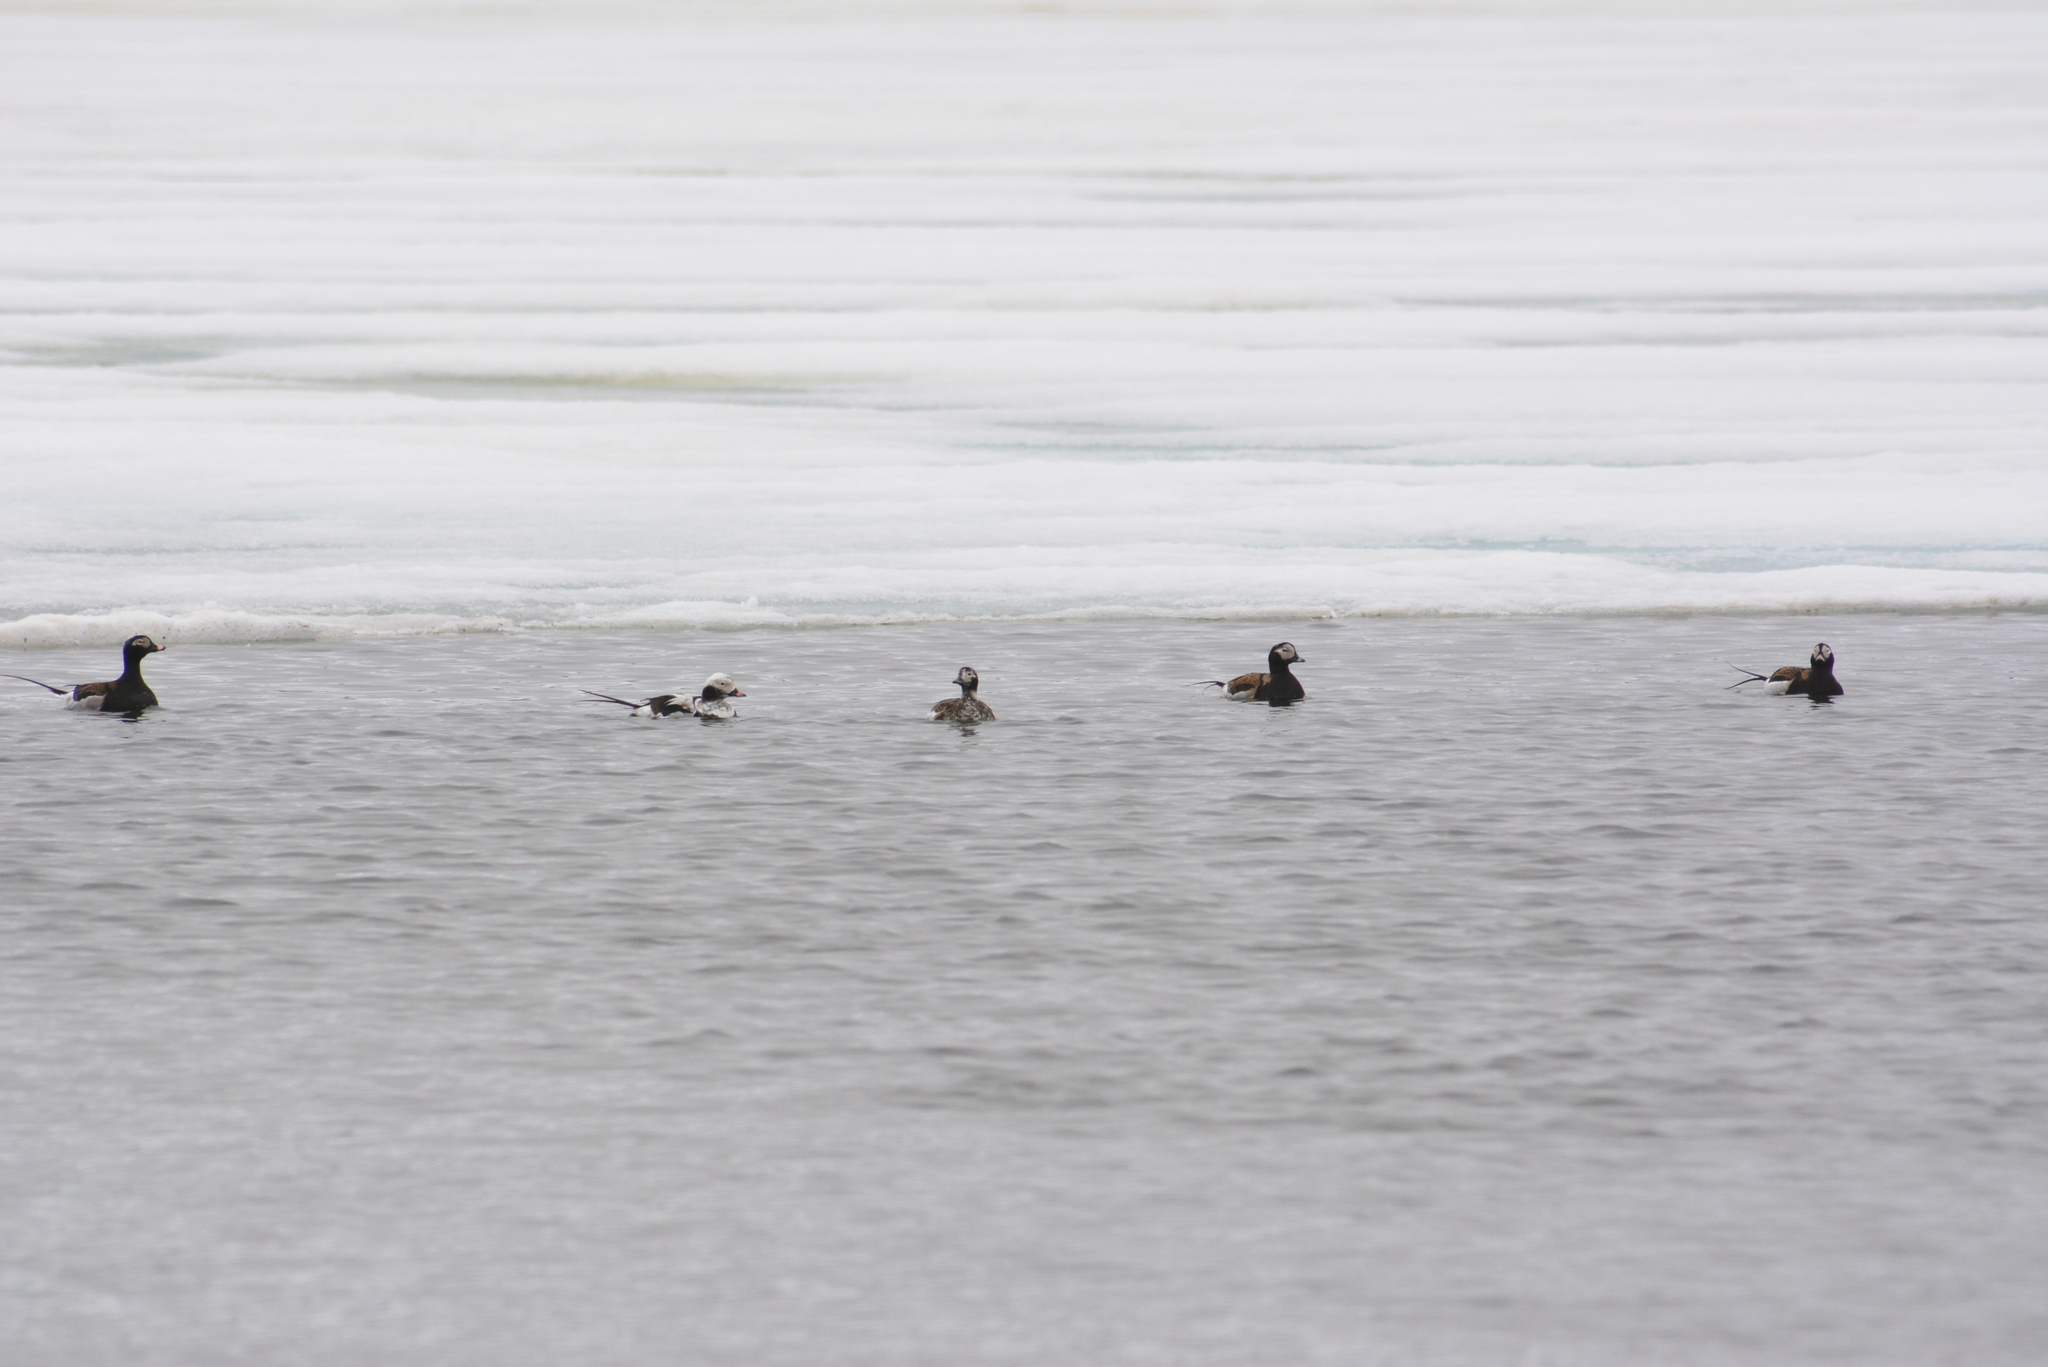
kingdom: Animalia
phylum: Chordata
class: Aves
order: Anseriformes
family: Anatidae
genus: Clangula
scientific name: Clangula hyemalis
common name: Long-tailed duck
